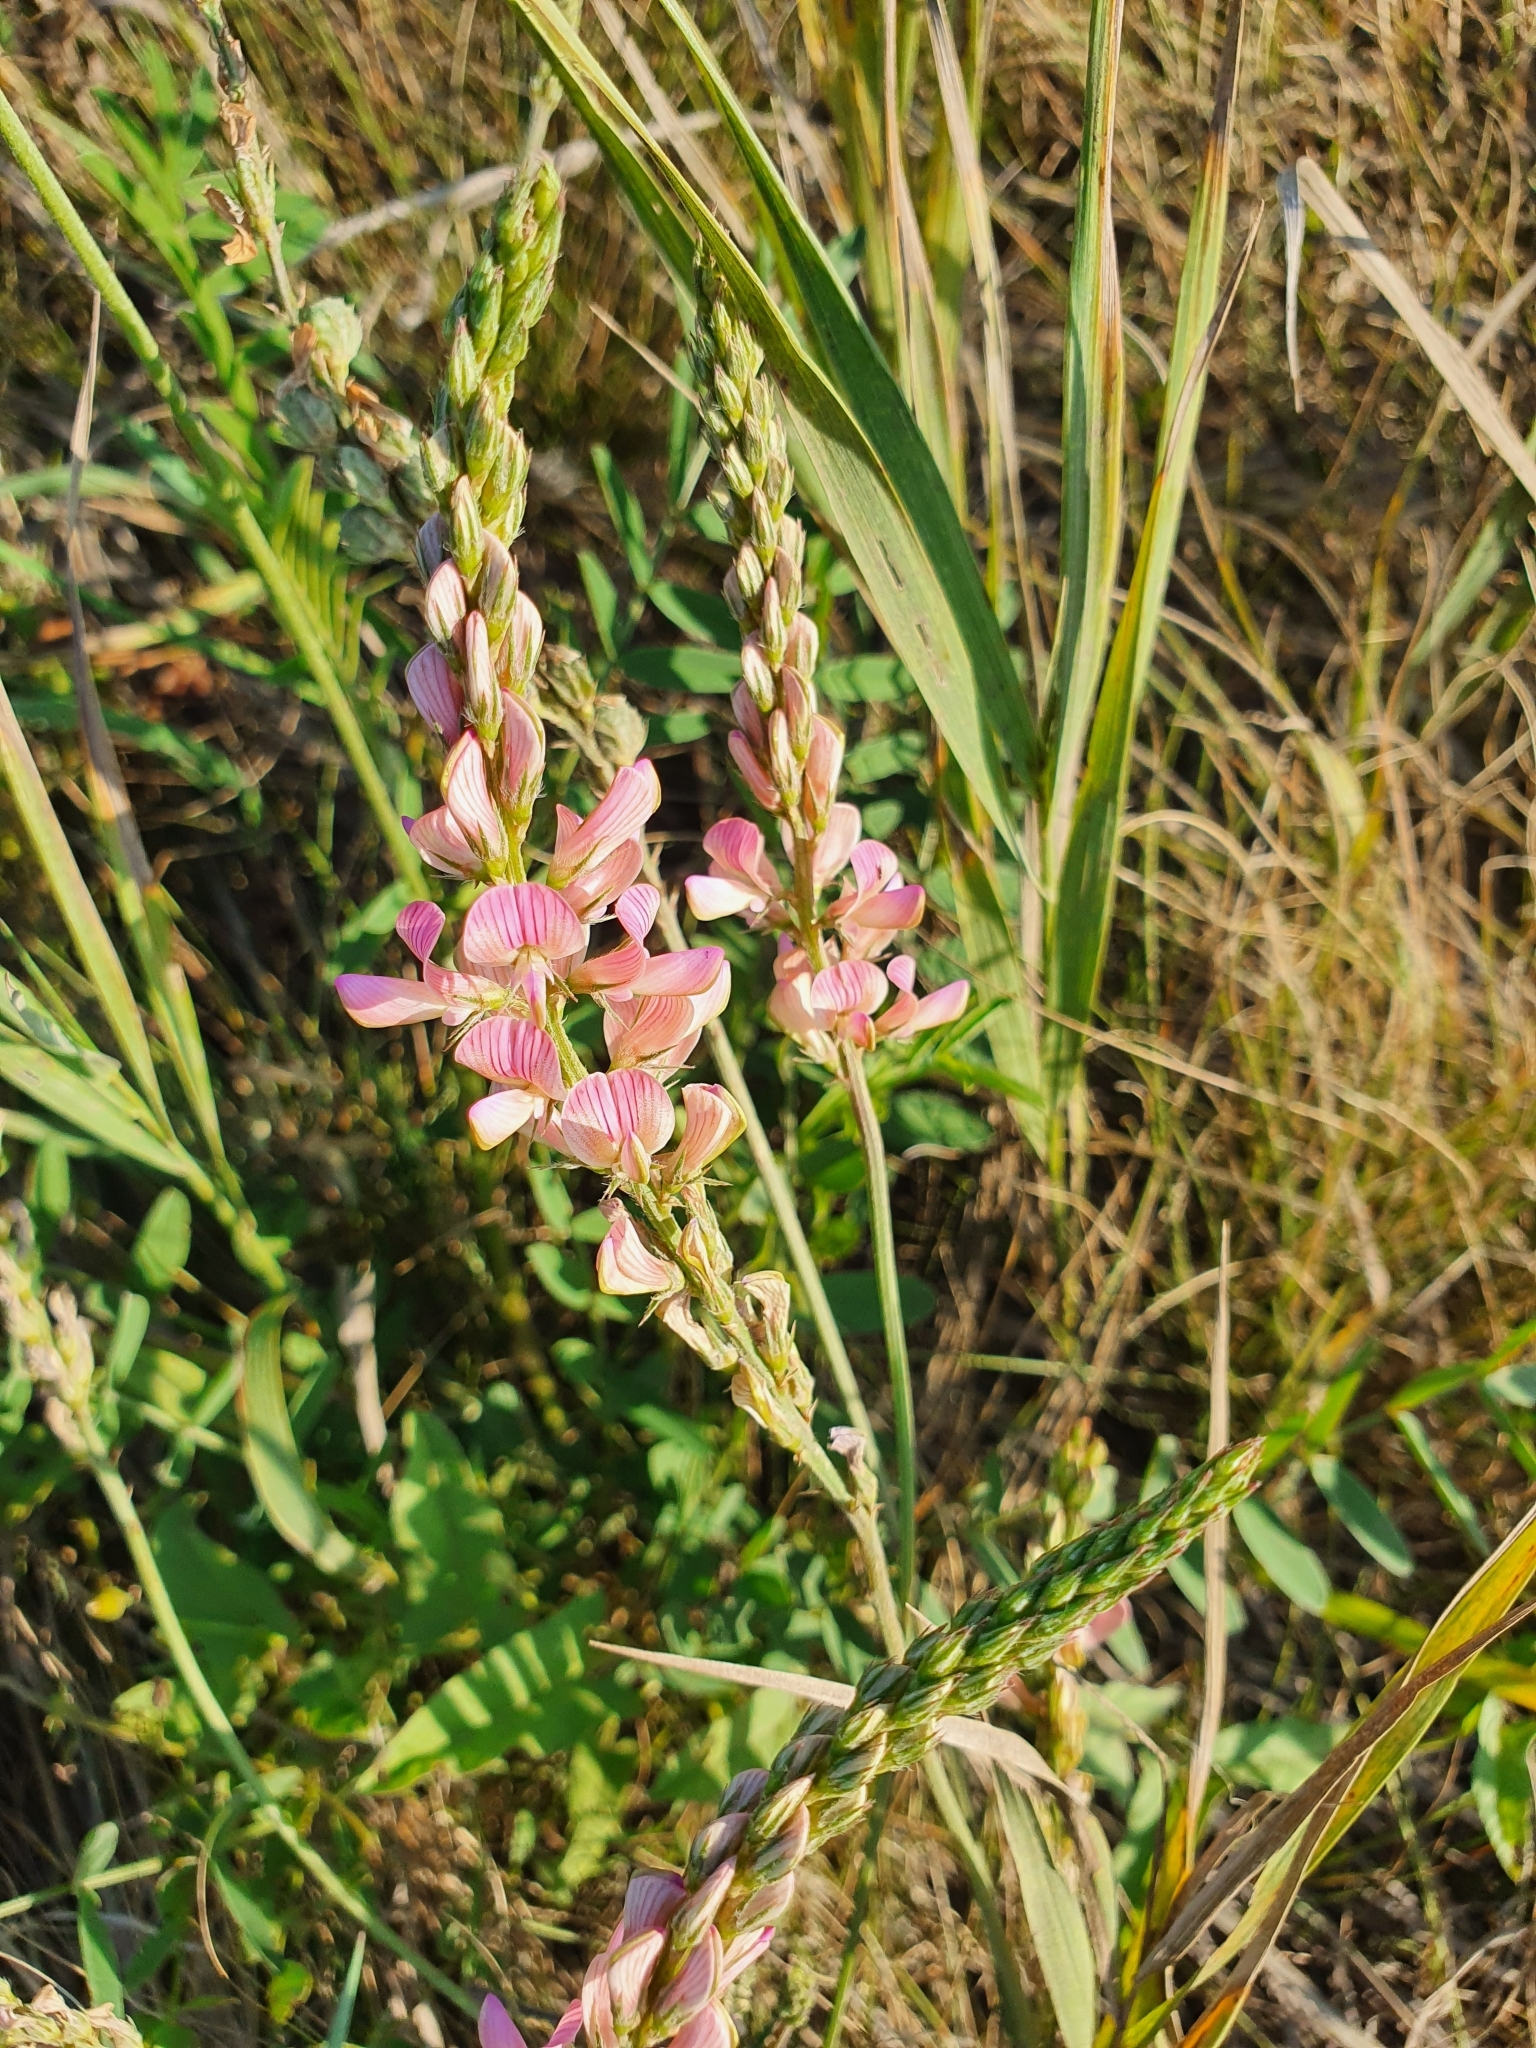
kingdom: Plantae
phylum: Tracheophyta
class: Magnoliopsida
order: Fabales
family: Fabaceae
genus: Onobrychis
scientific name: Onobrychis arenaria
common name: Sand esparcet
